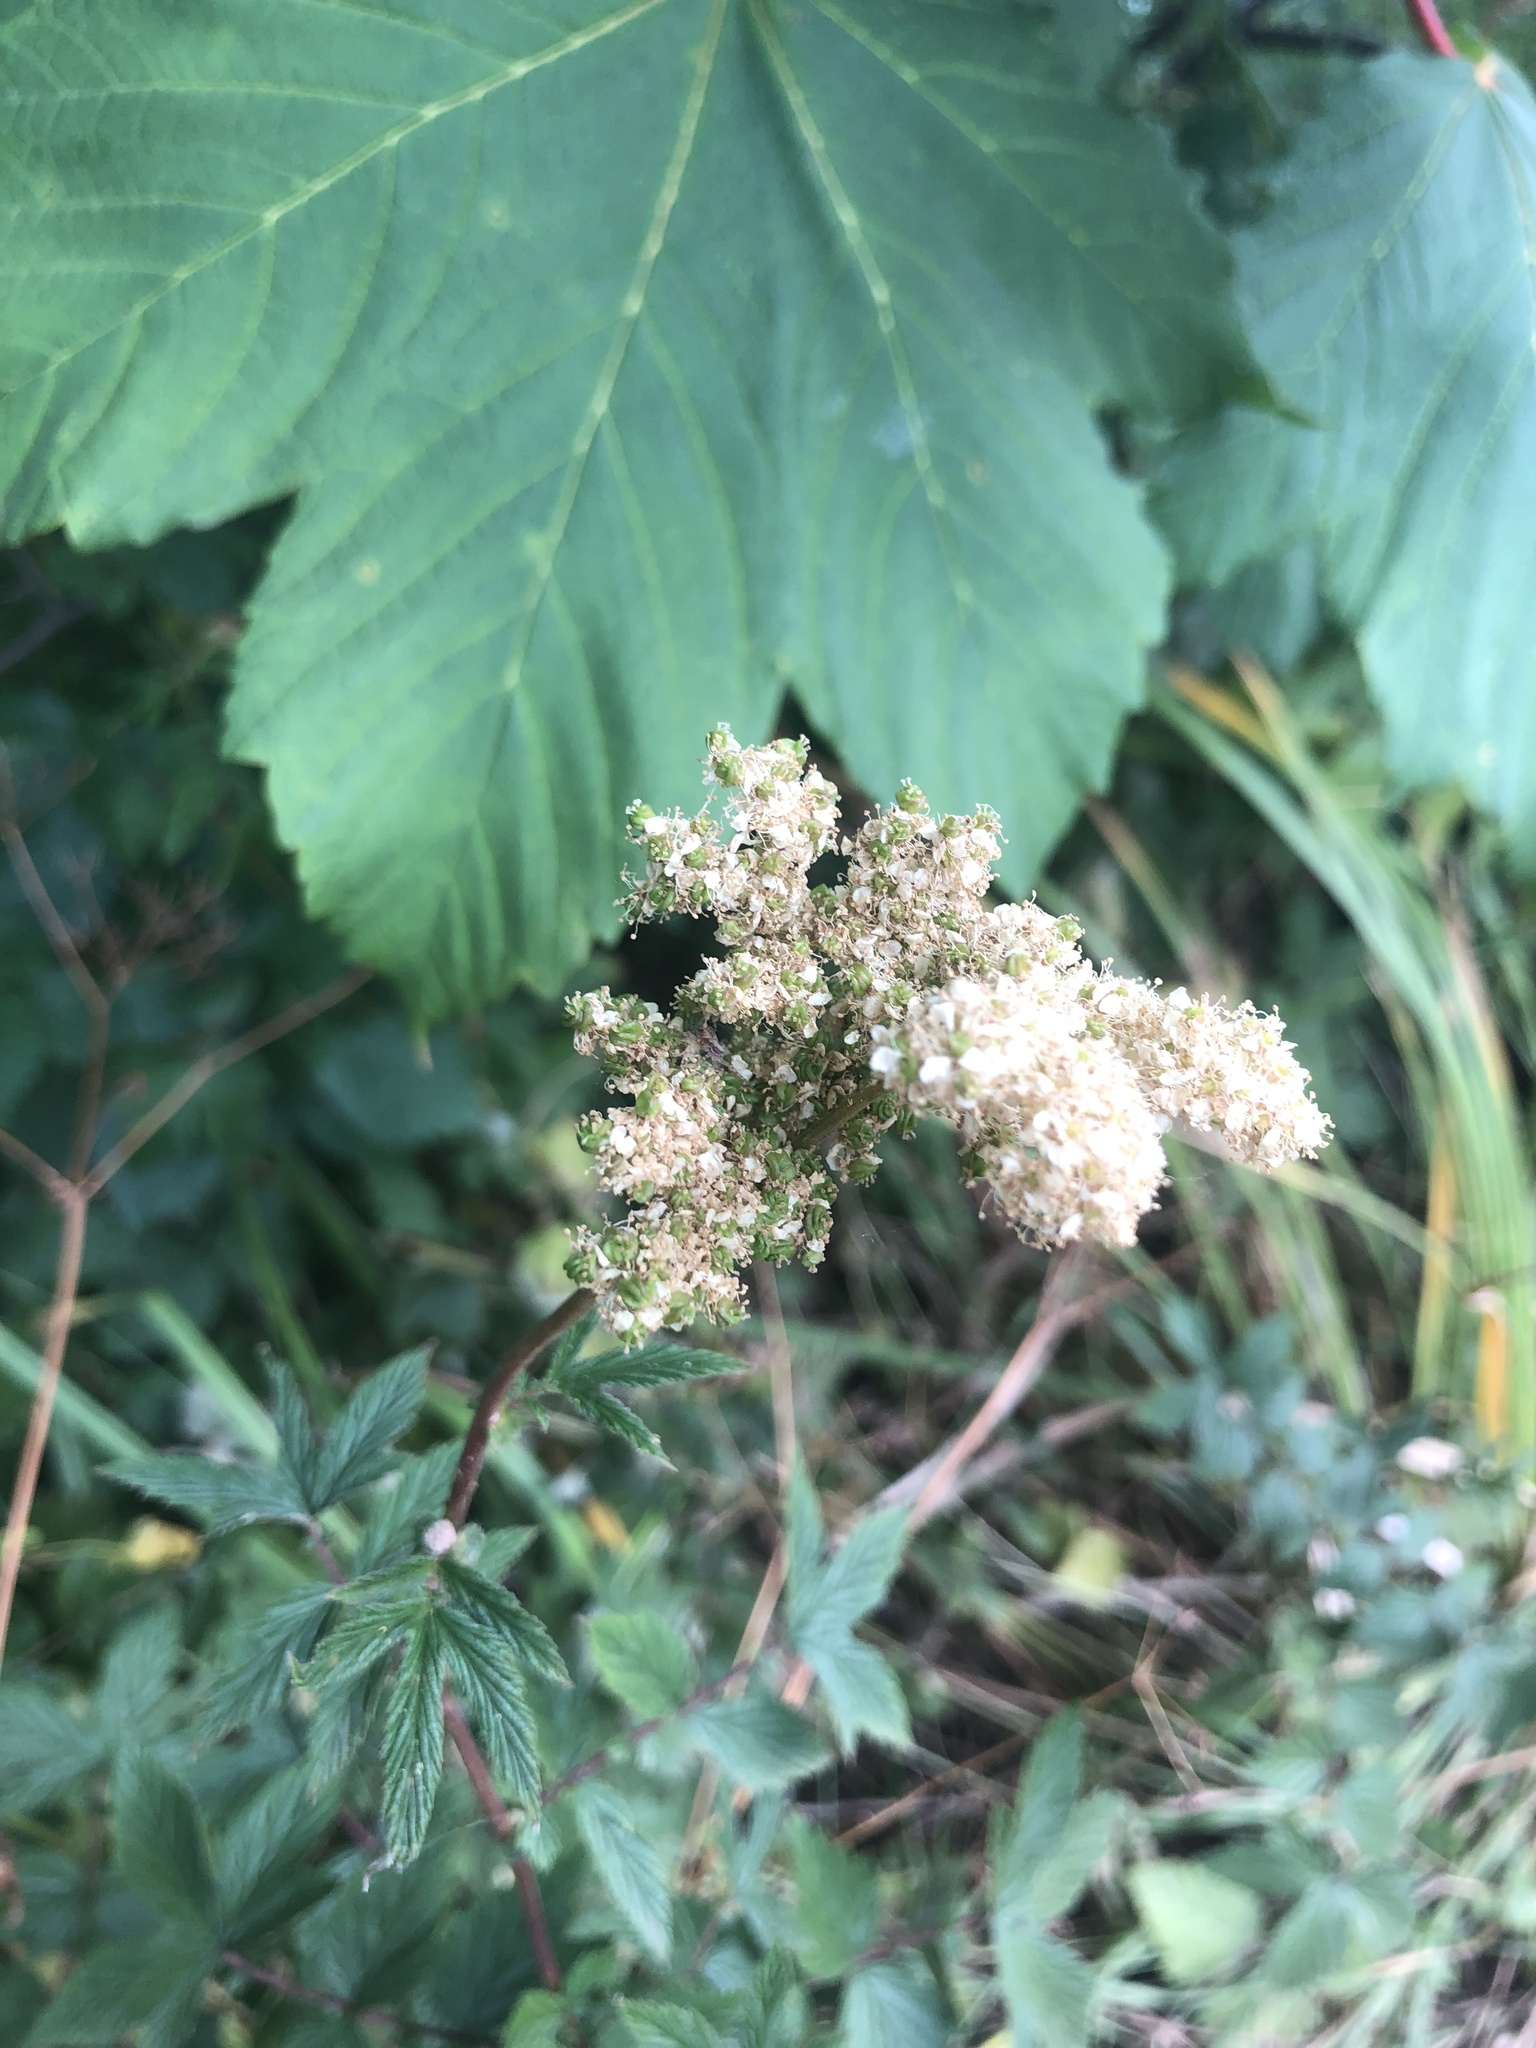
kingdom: Plantae
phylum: Tracheophyta
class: Magnoliopsida
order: Rosales
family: Rosaceae
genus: Filipendula
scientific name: Filipendula ulmaria
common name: Meadowsweet
